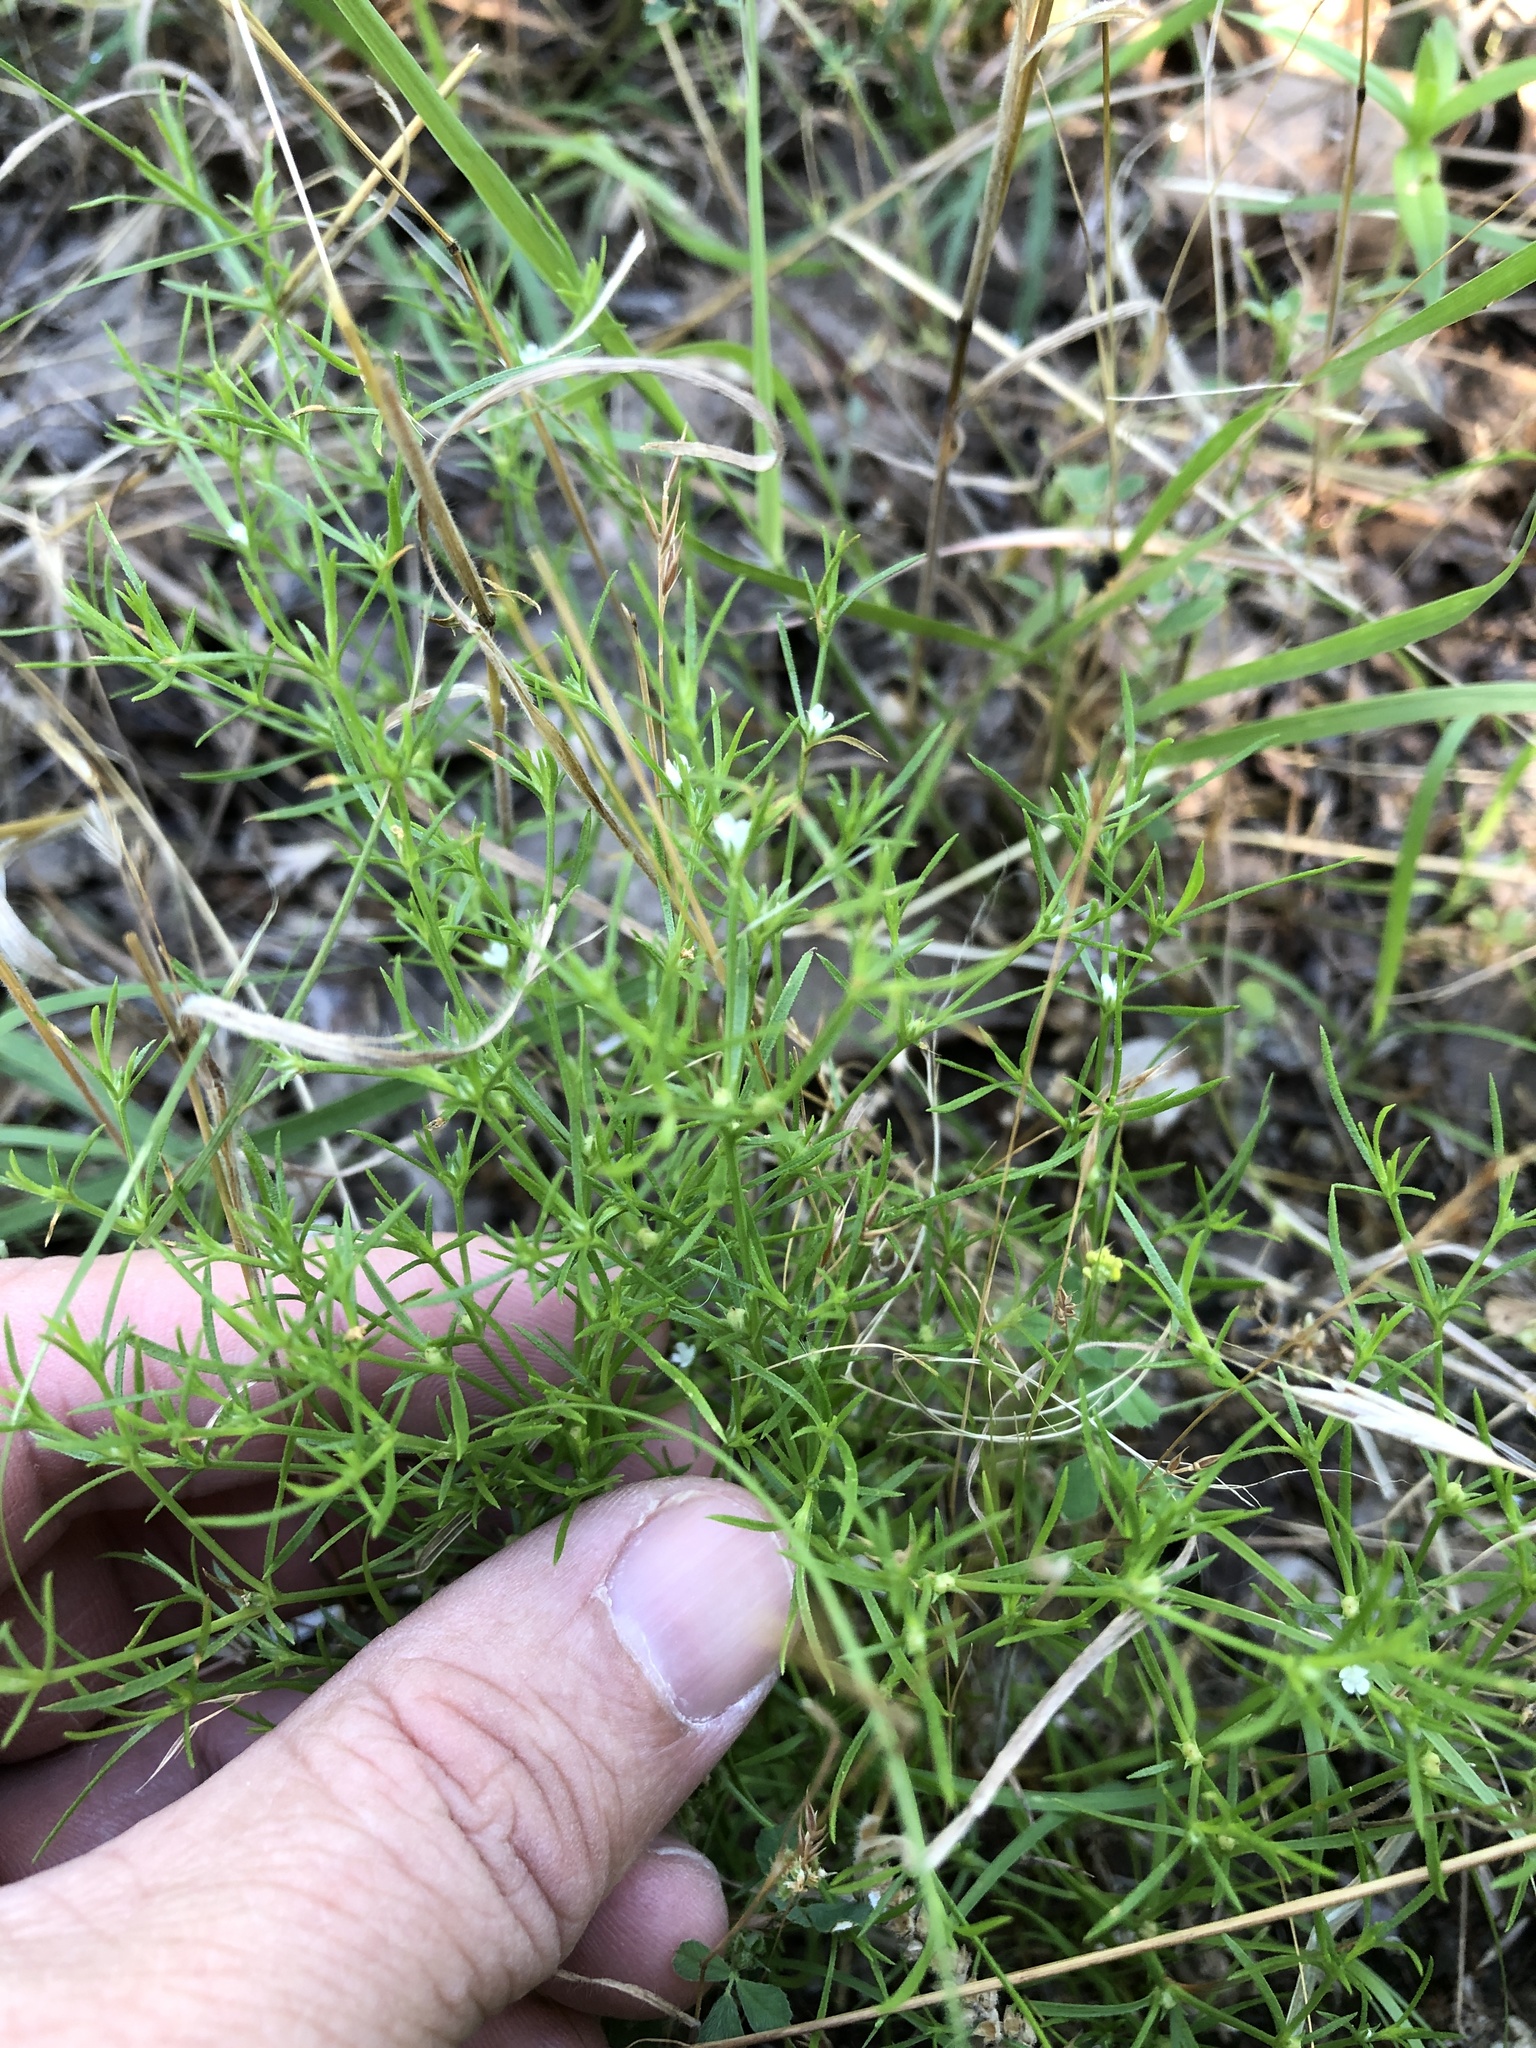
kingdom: Plantae
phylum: Tracheophyta
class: Magnoliopsida
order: Lamiales
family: Tetrachondraceae
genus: Polypremum
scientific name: Polypremum procumbens
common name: Juniper-leaf
